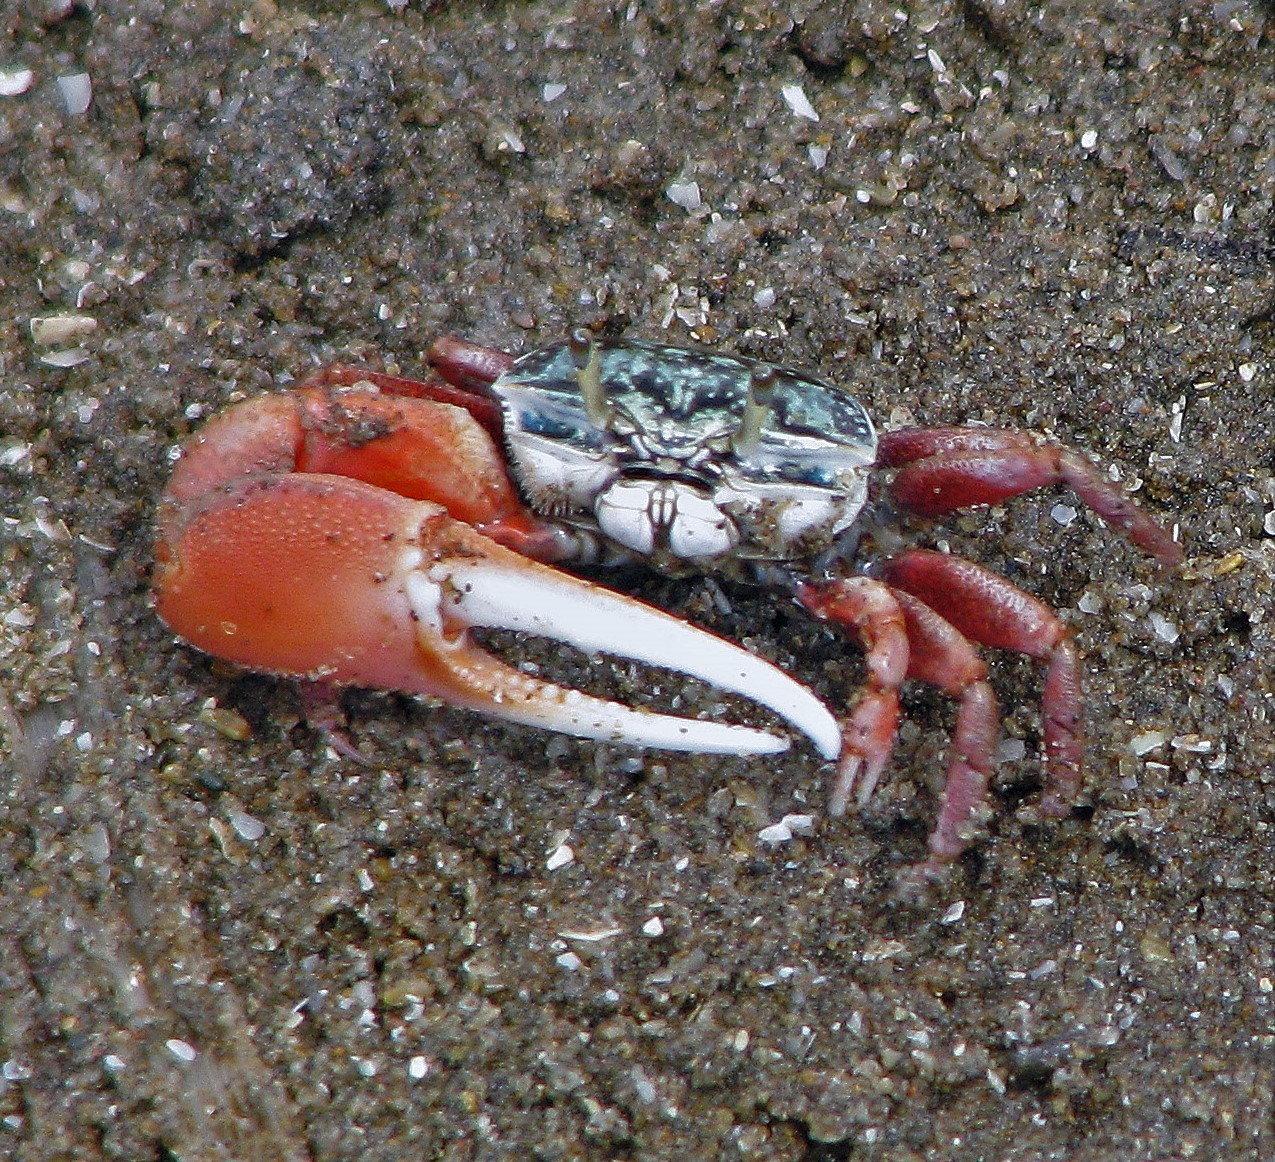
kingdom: Animalia
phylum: Arthropoda
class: Malacostraca
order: Decapoda
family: Ocypodidae
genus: Leptuca
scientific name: Leptuca uruguayensis
